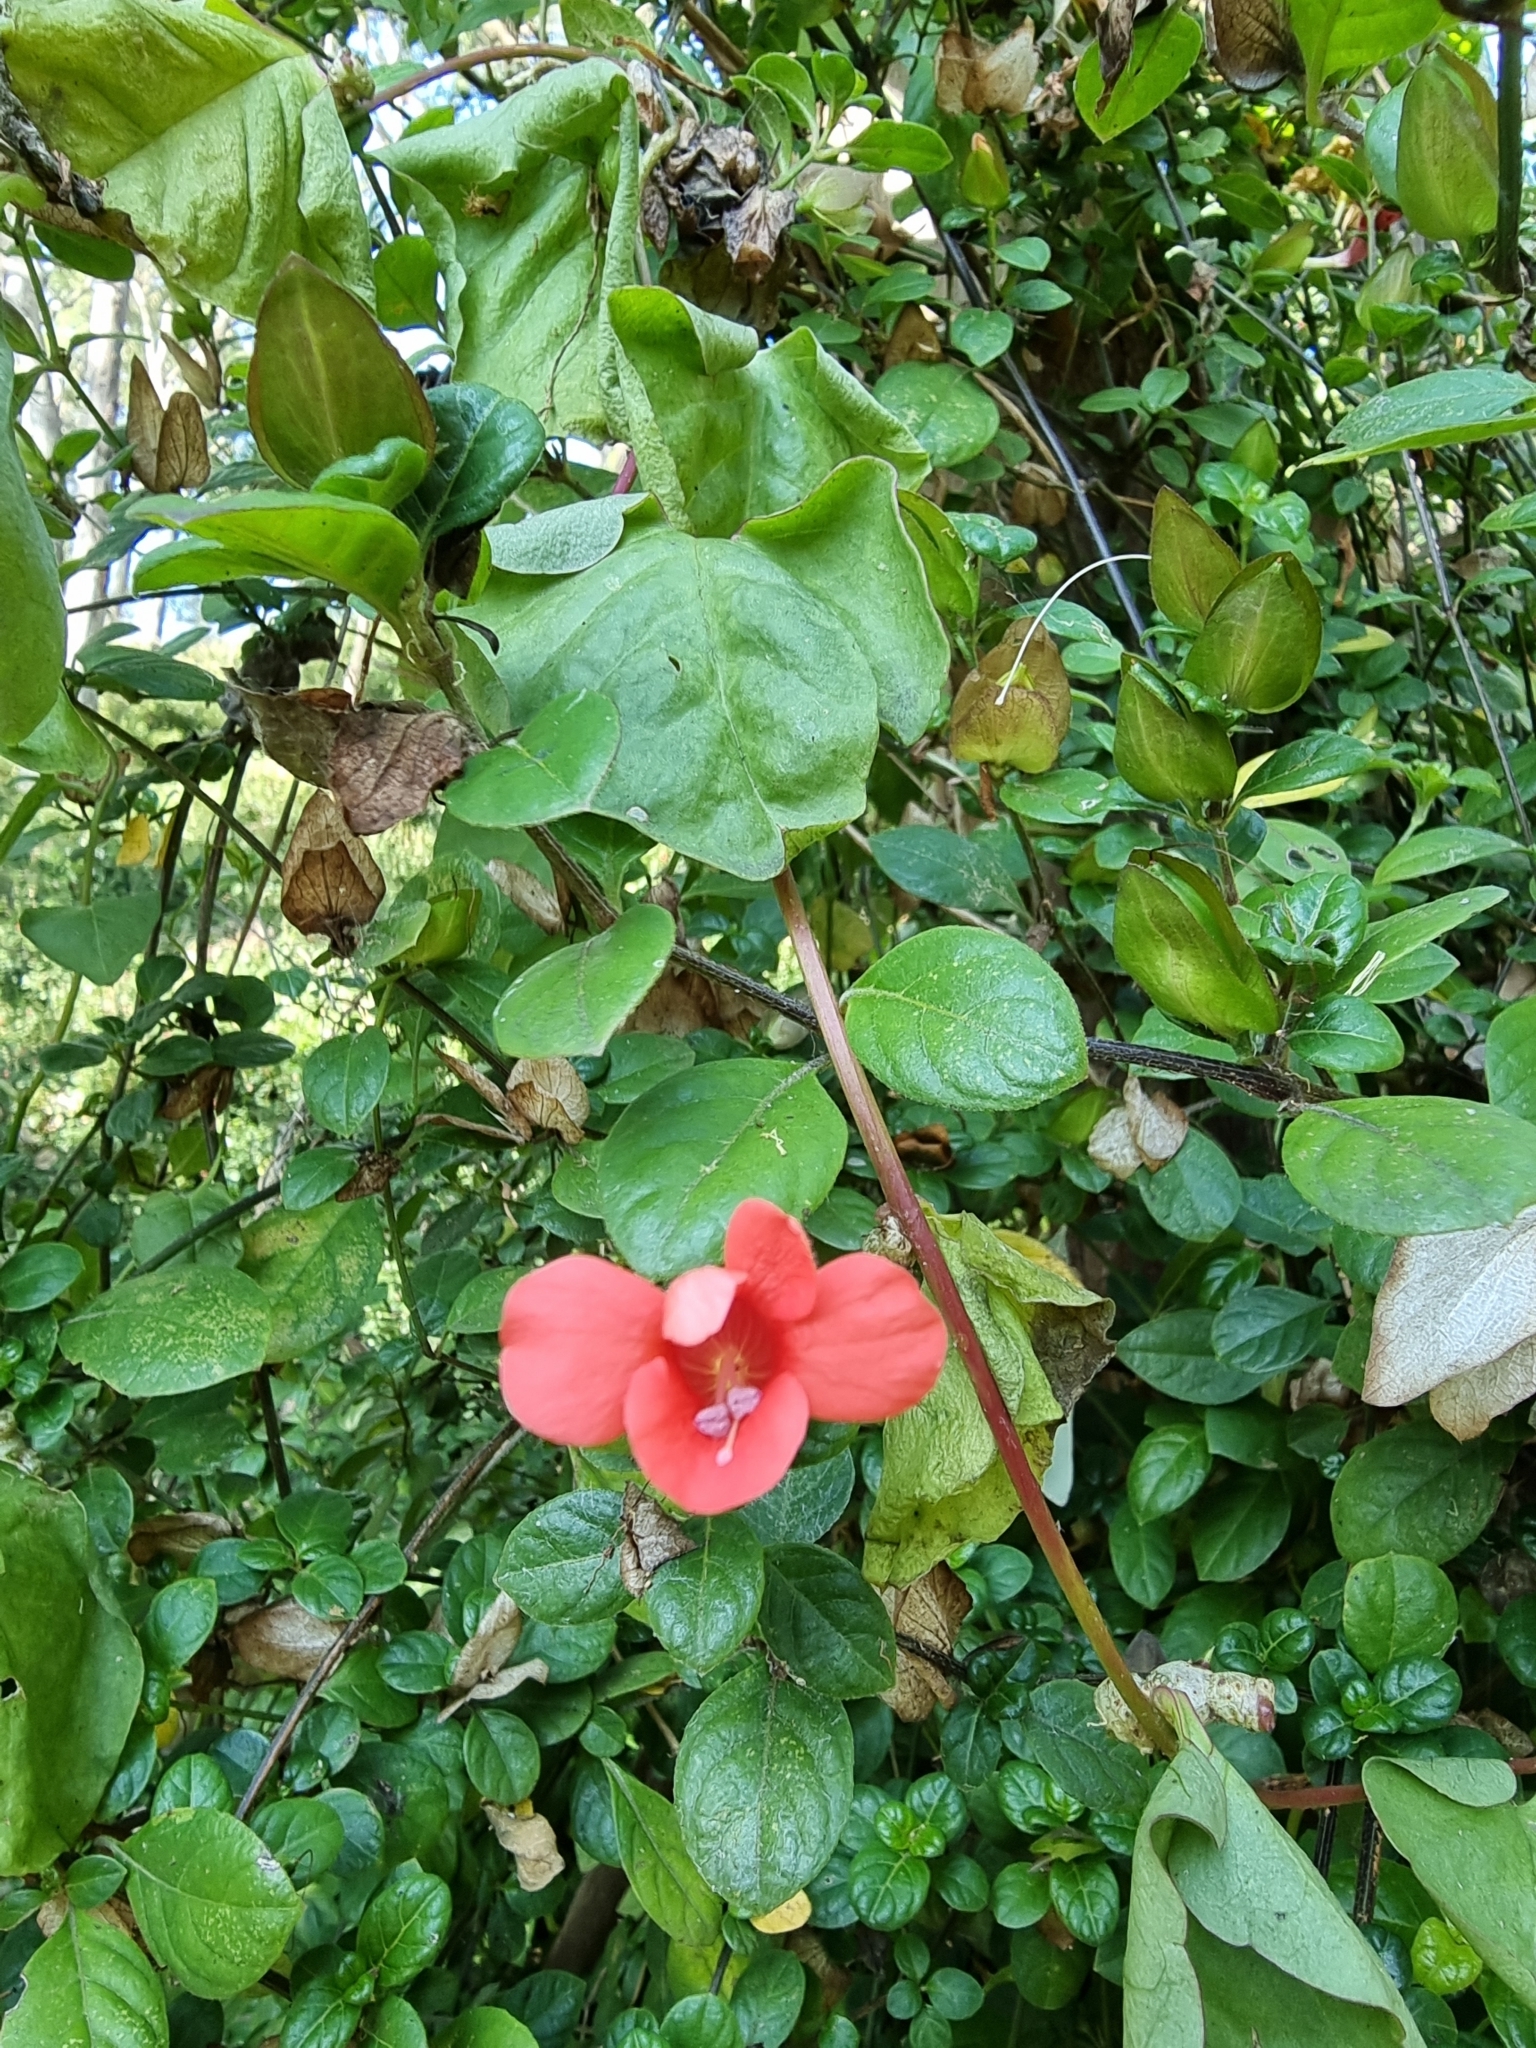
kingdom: Plantae
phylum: Tracheophyta
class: Magnoliopsida
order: Lamiales
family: Acanthaceae
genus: Barleria
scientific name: Barleria repens
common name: Pink-ruellia
